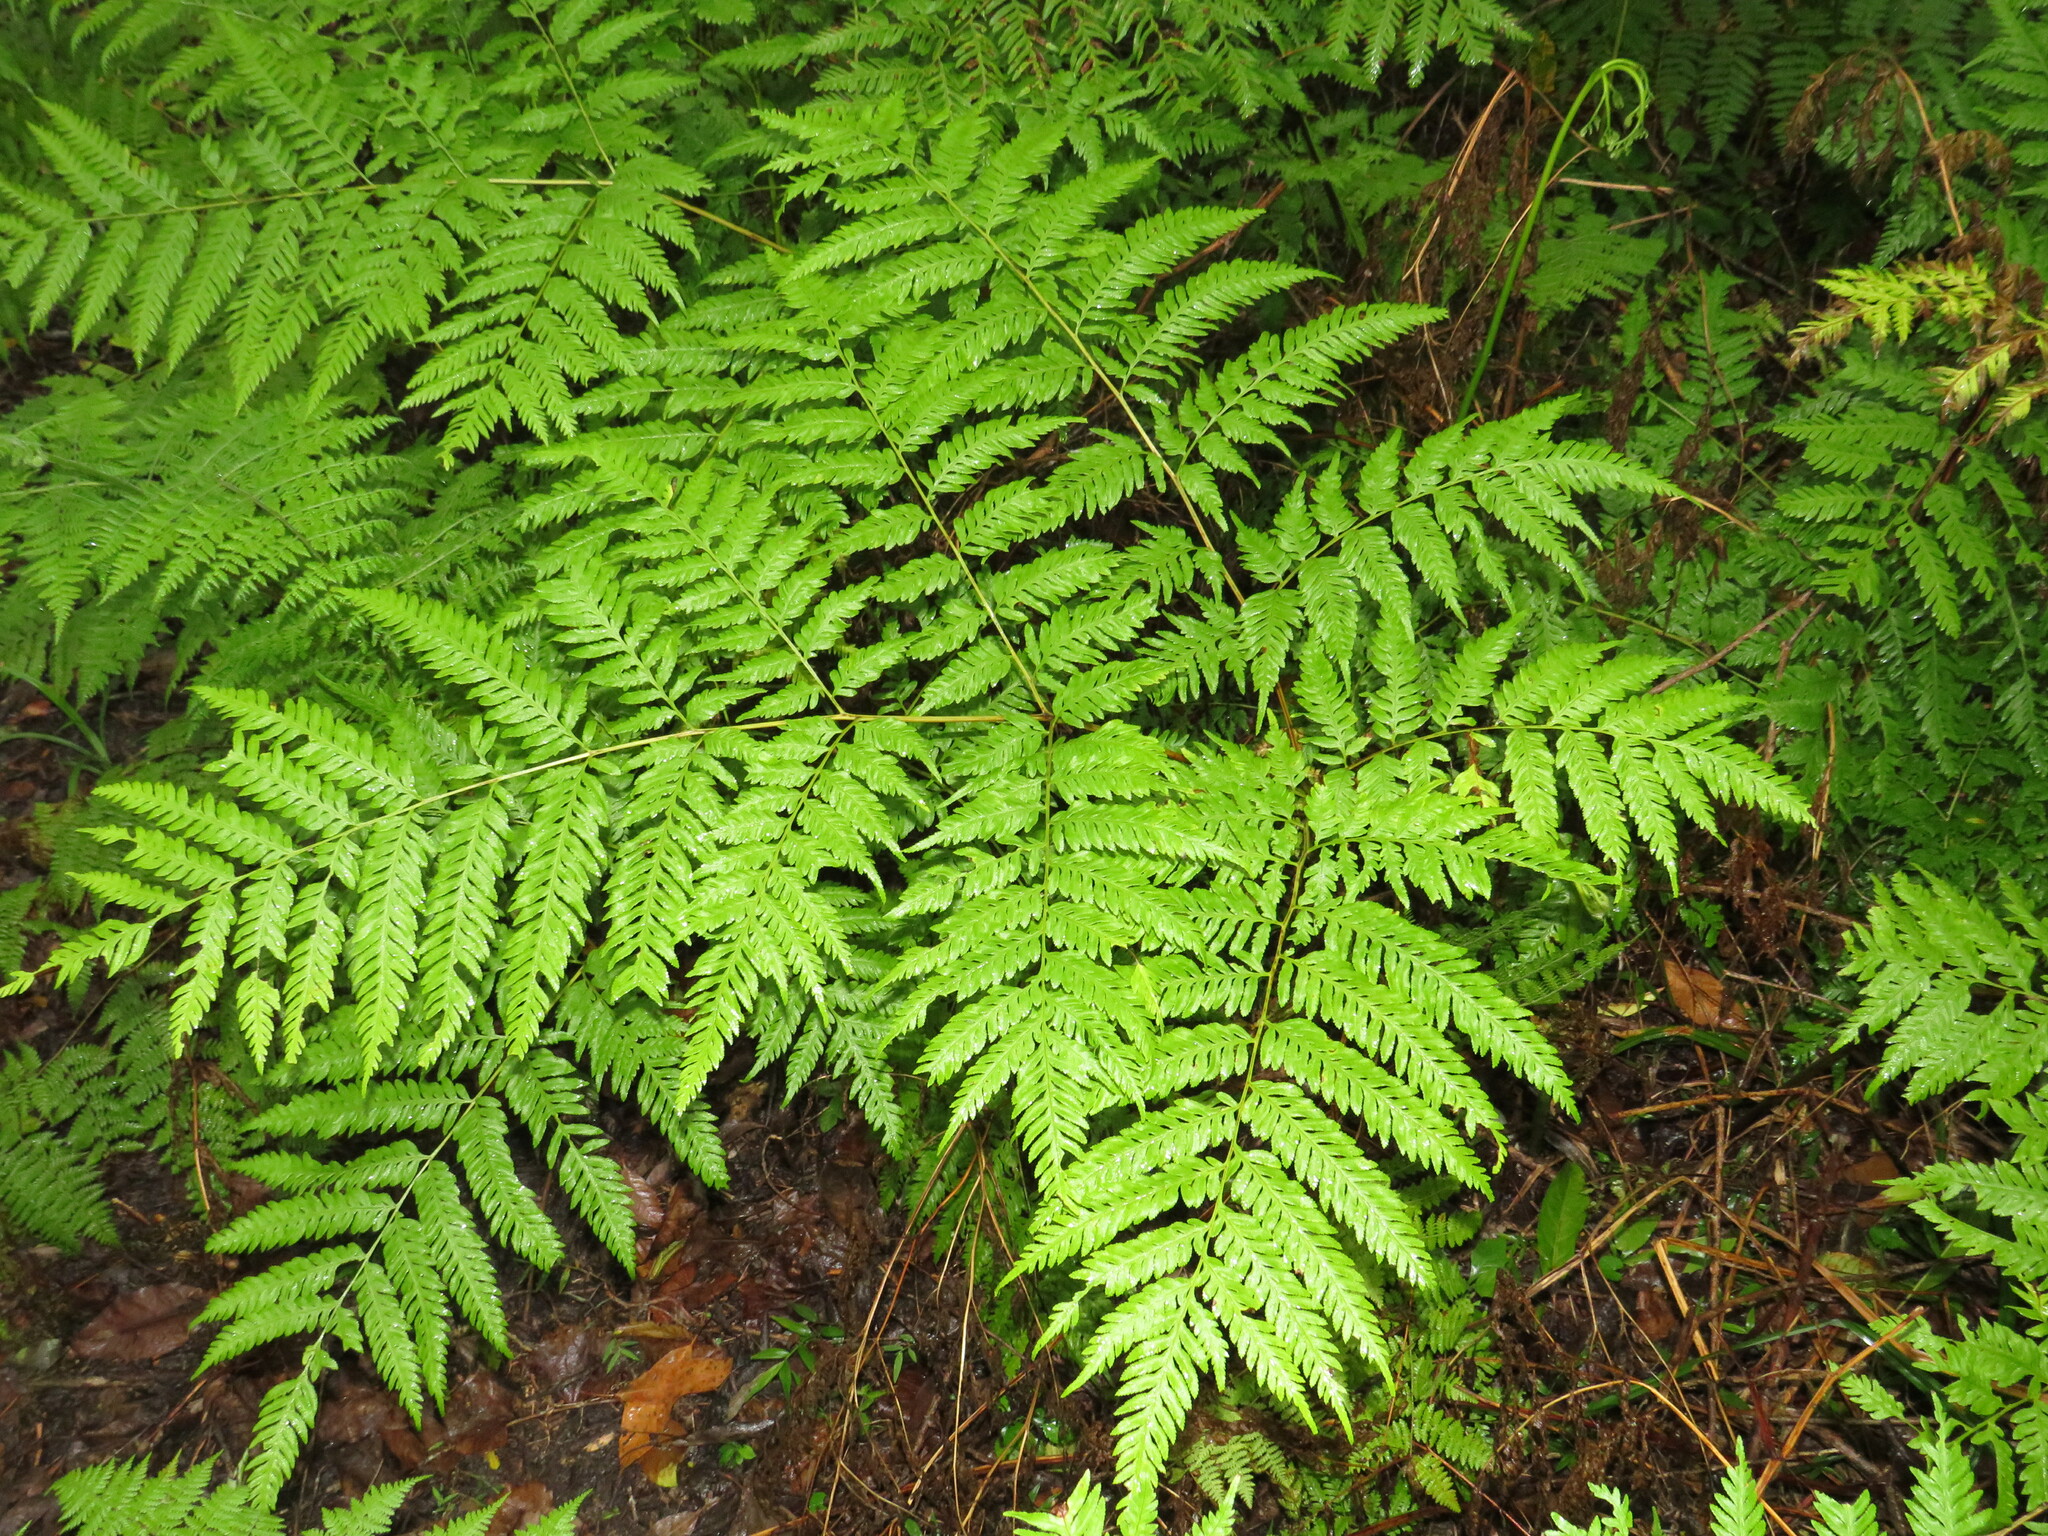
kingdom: Plantae
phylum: Tracheophyta
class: Polypodiopsida
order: Polypodiales
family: Pteridaceae
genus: Pteris
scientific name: Pteris buchananii
